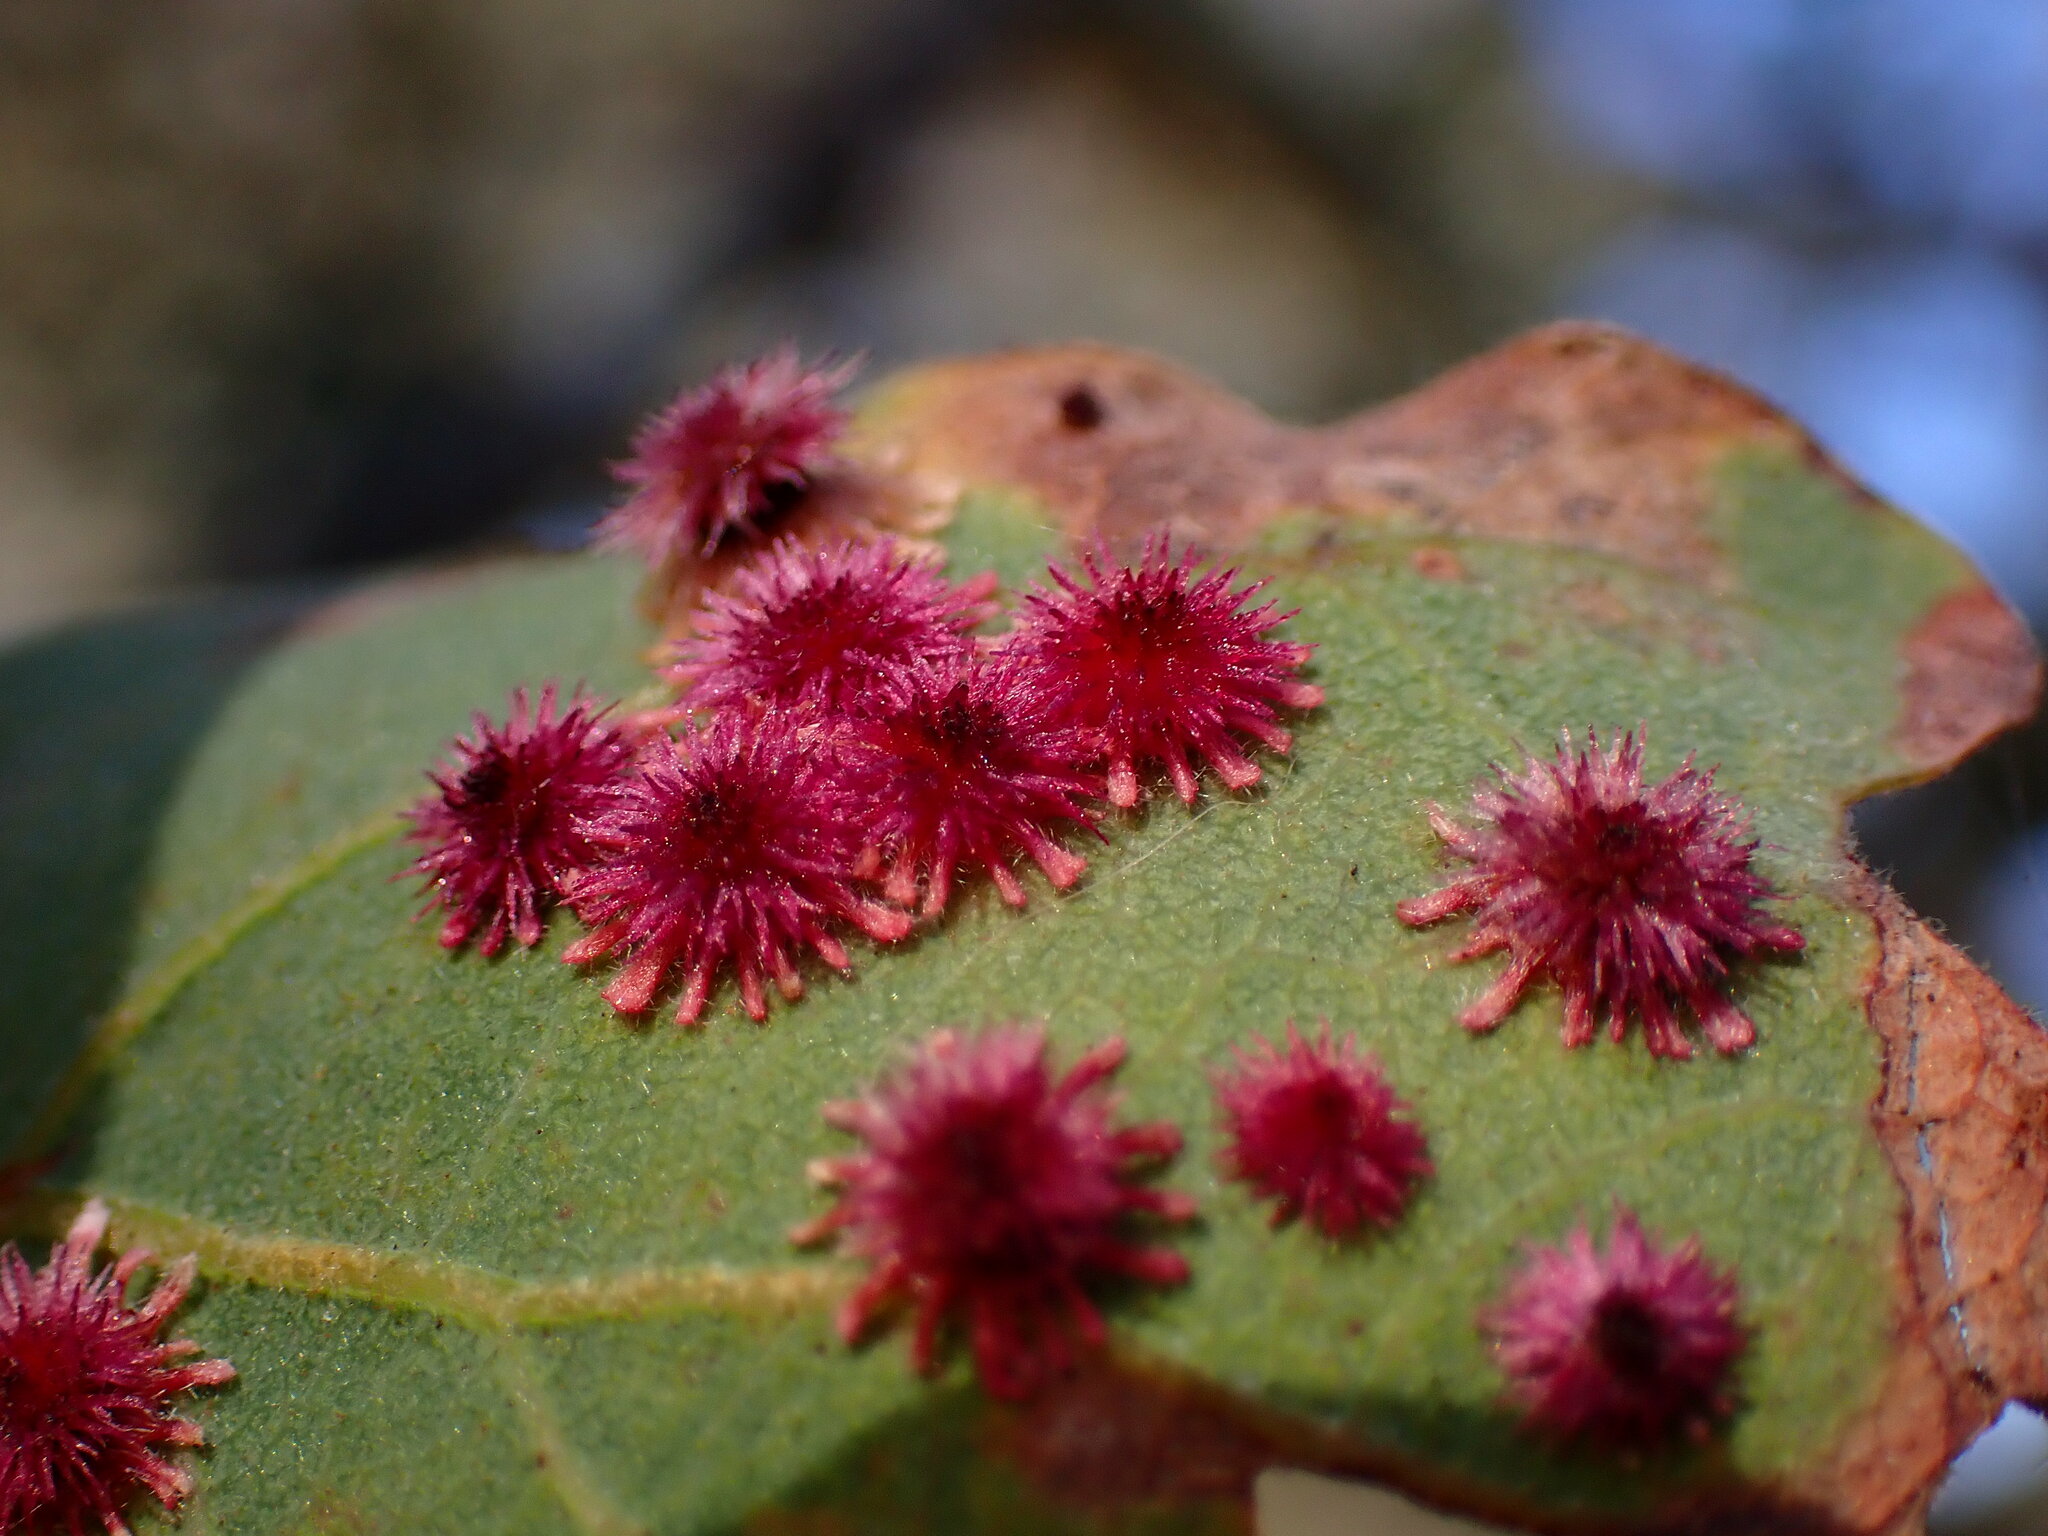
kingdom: Animalia
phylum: Arthropoda
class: Insecta
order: Hymenoptera
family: Cynipidae
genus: Andricus
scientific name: Andricus
